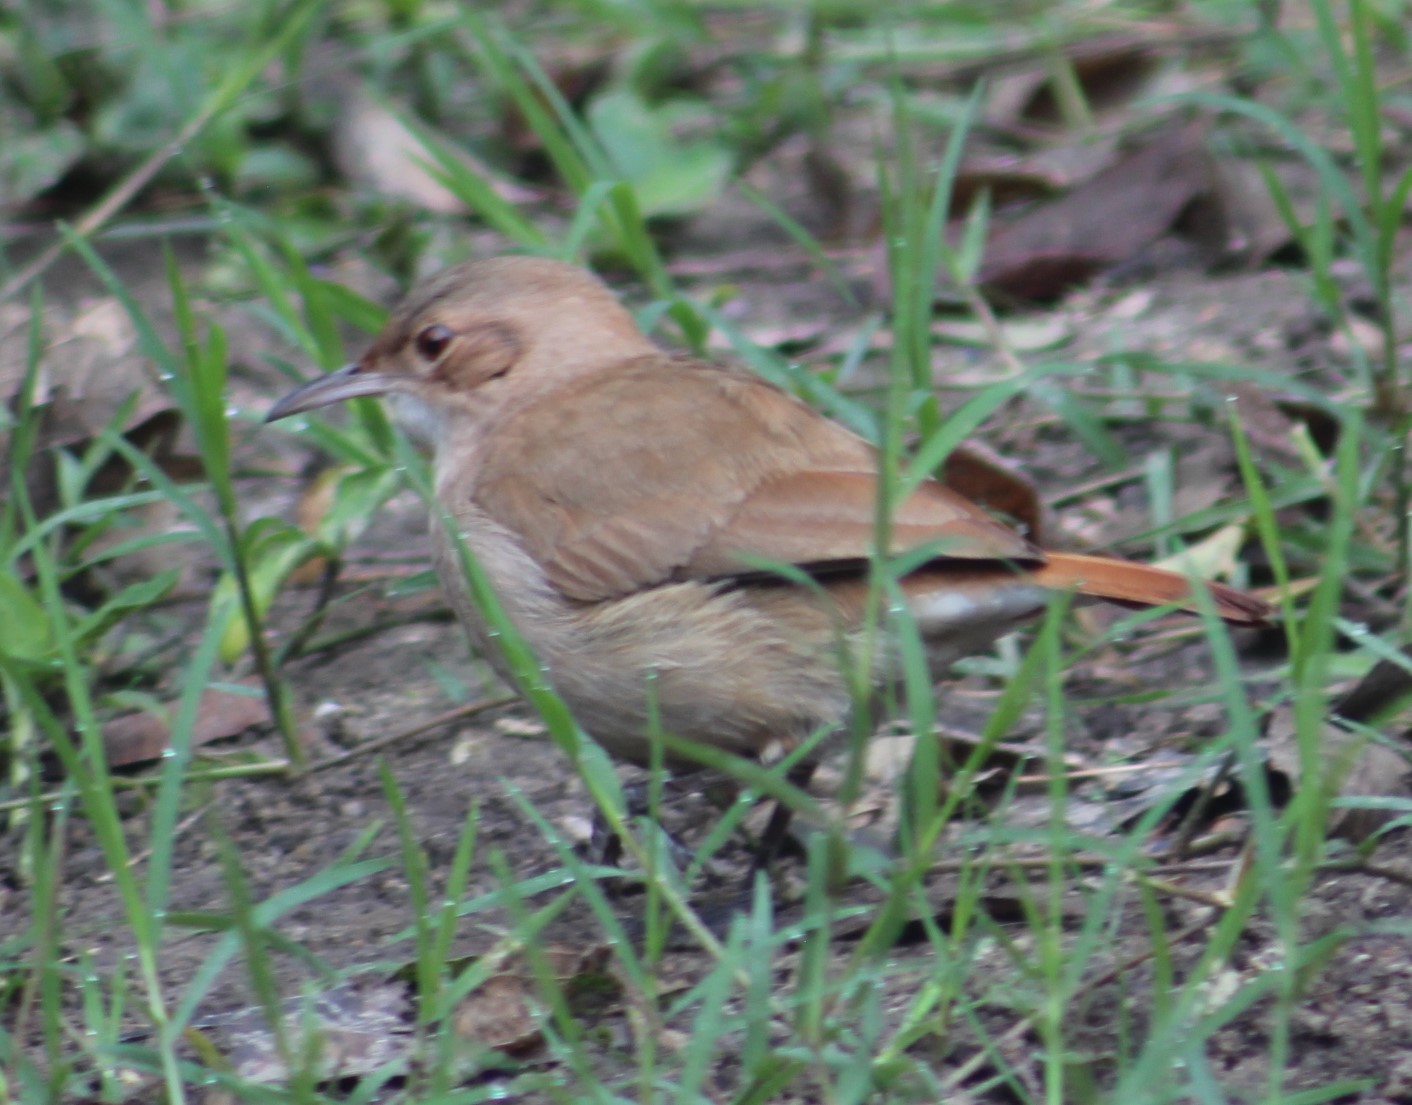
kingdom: Animalia
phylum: Chordata
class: Aves
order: Passeriformes
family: Furnariidae
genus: Furnarius
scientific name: Furnarius rufus
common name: Rufous hornero
